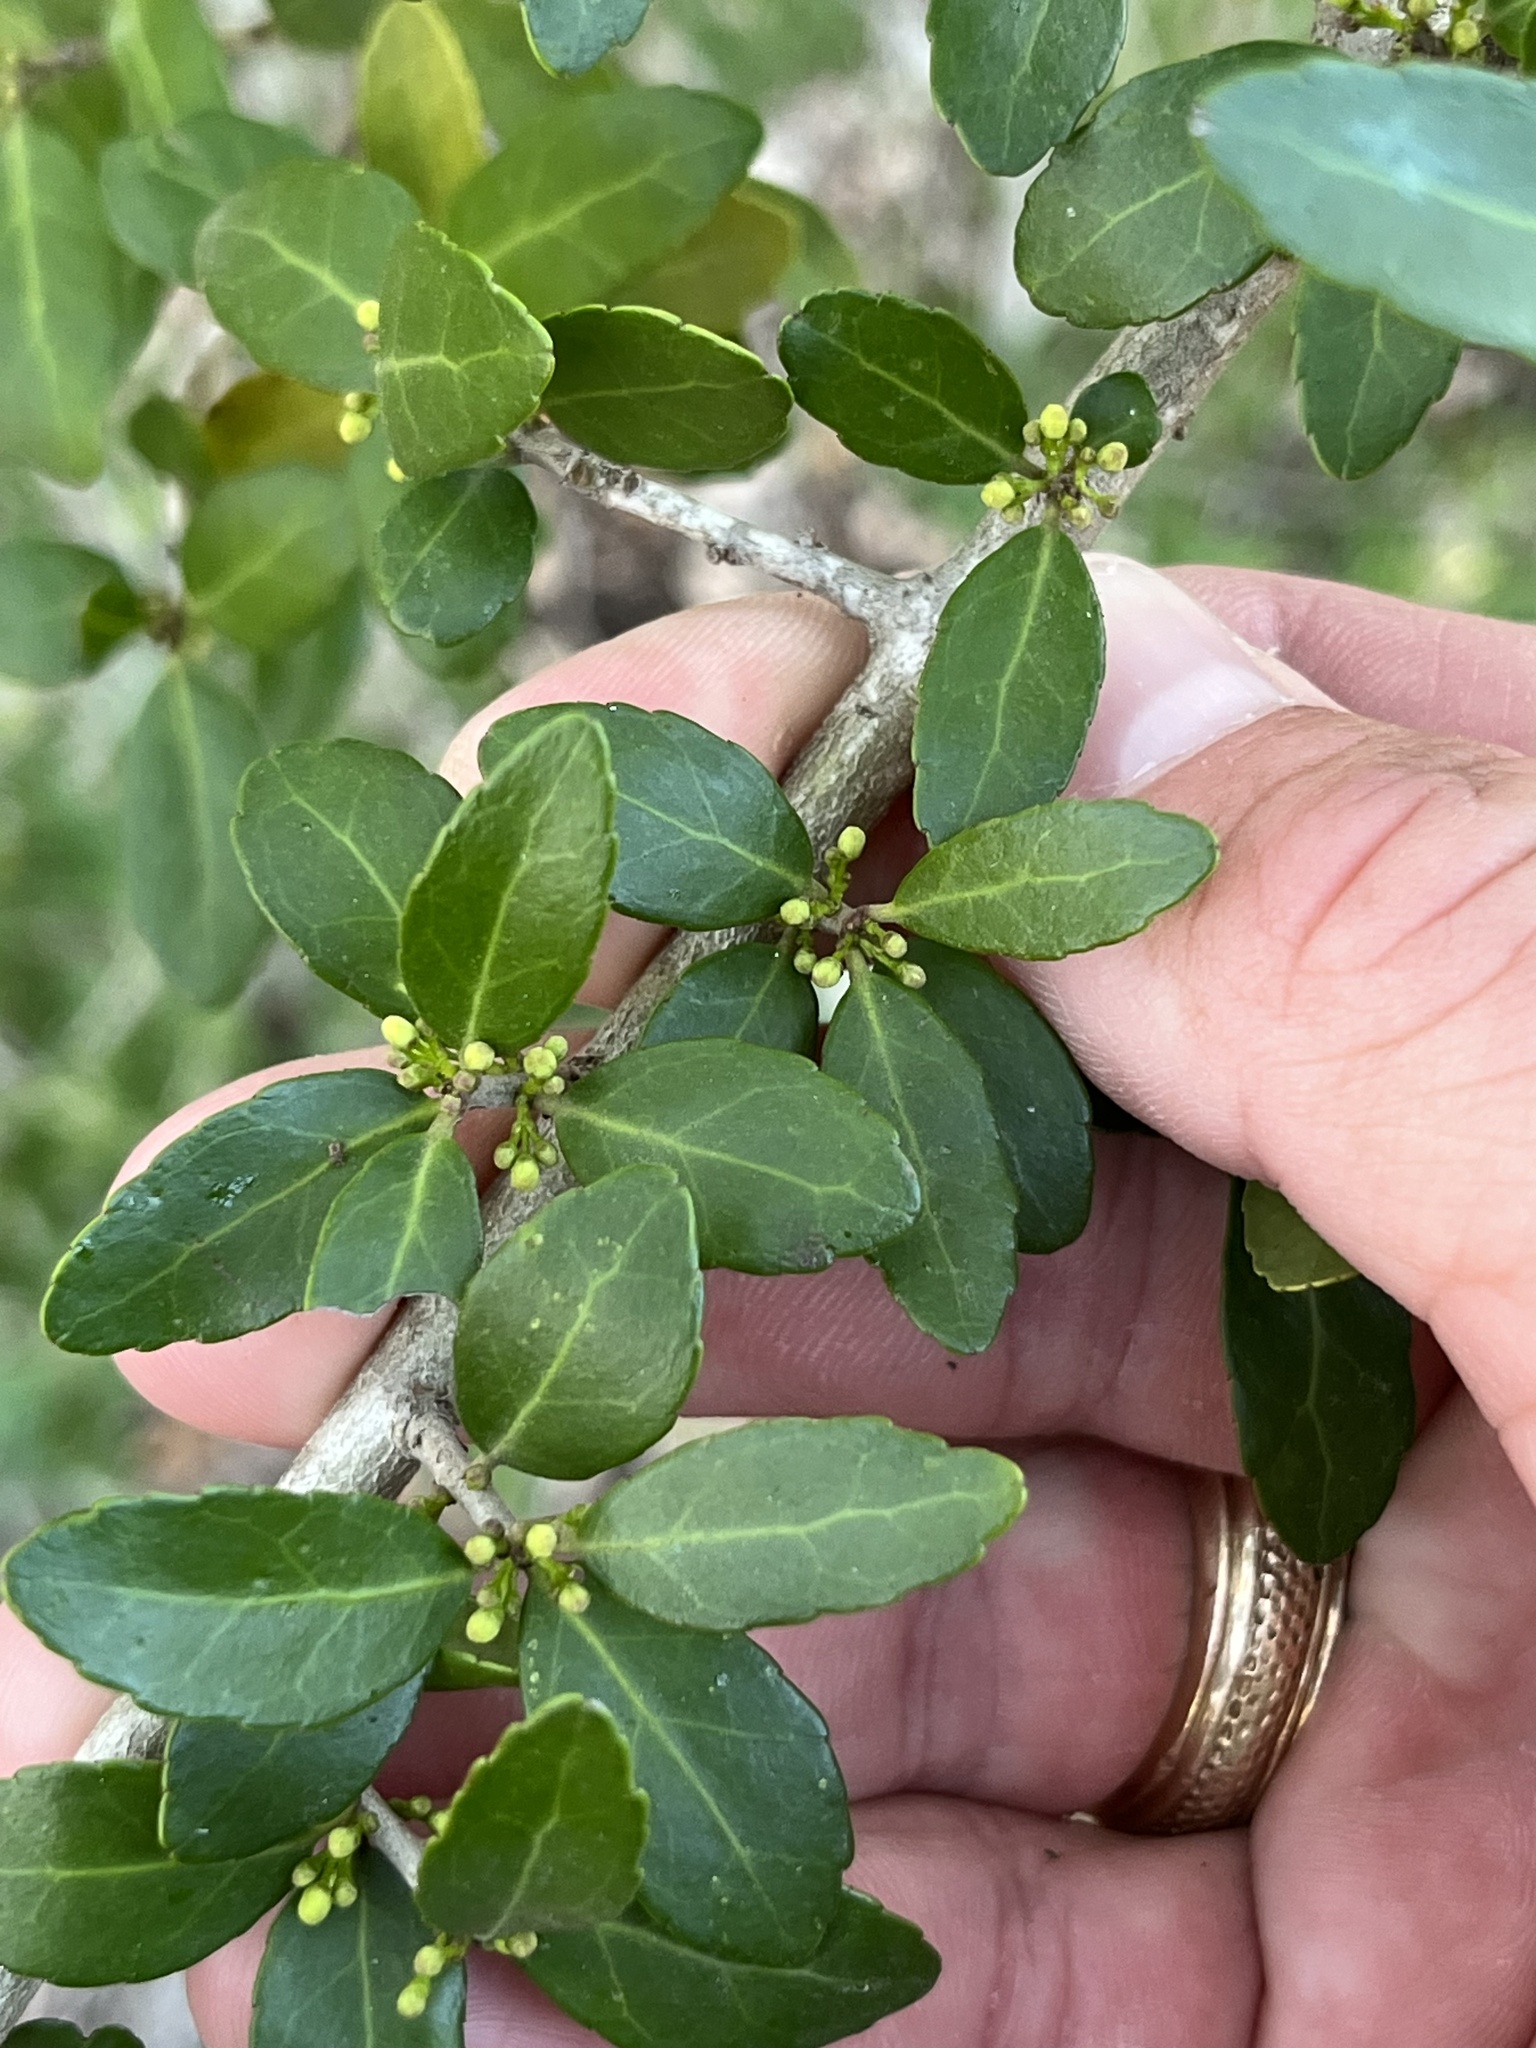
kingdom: Plantae
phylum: Tracheophyta
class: Magnoliopsida
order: Aquifoliales
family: Aquifoliaceae
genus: Ilex
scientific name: Ilex vomitoria
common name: Yaupon holly
